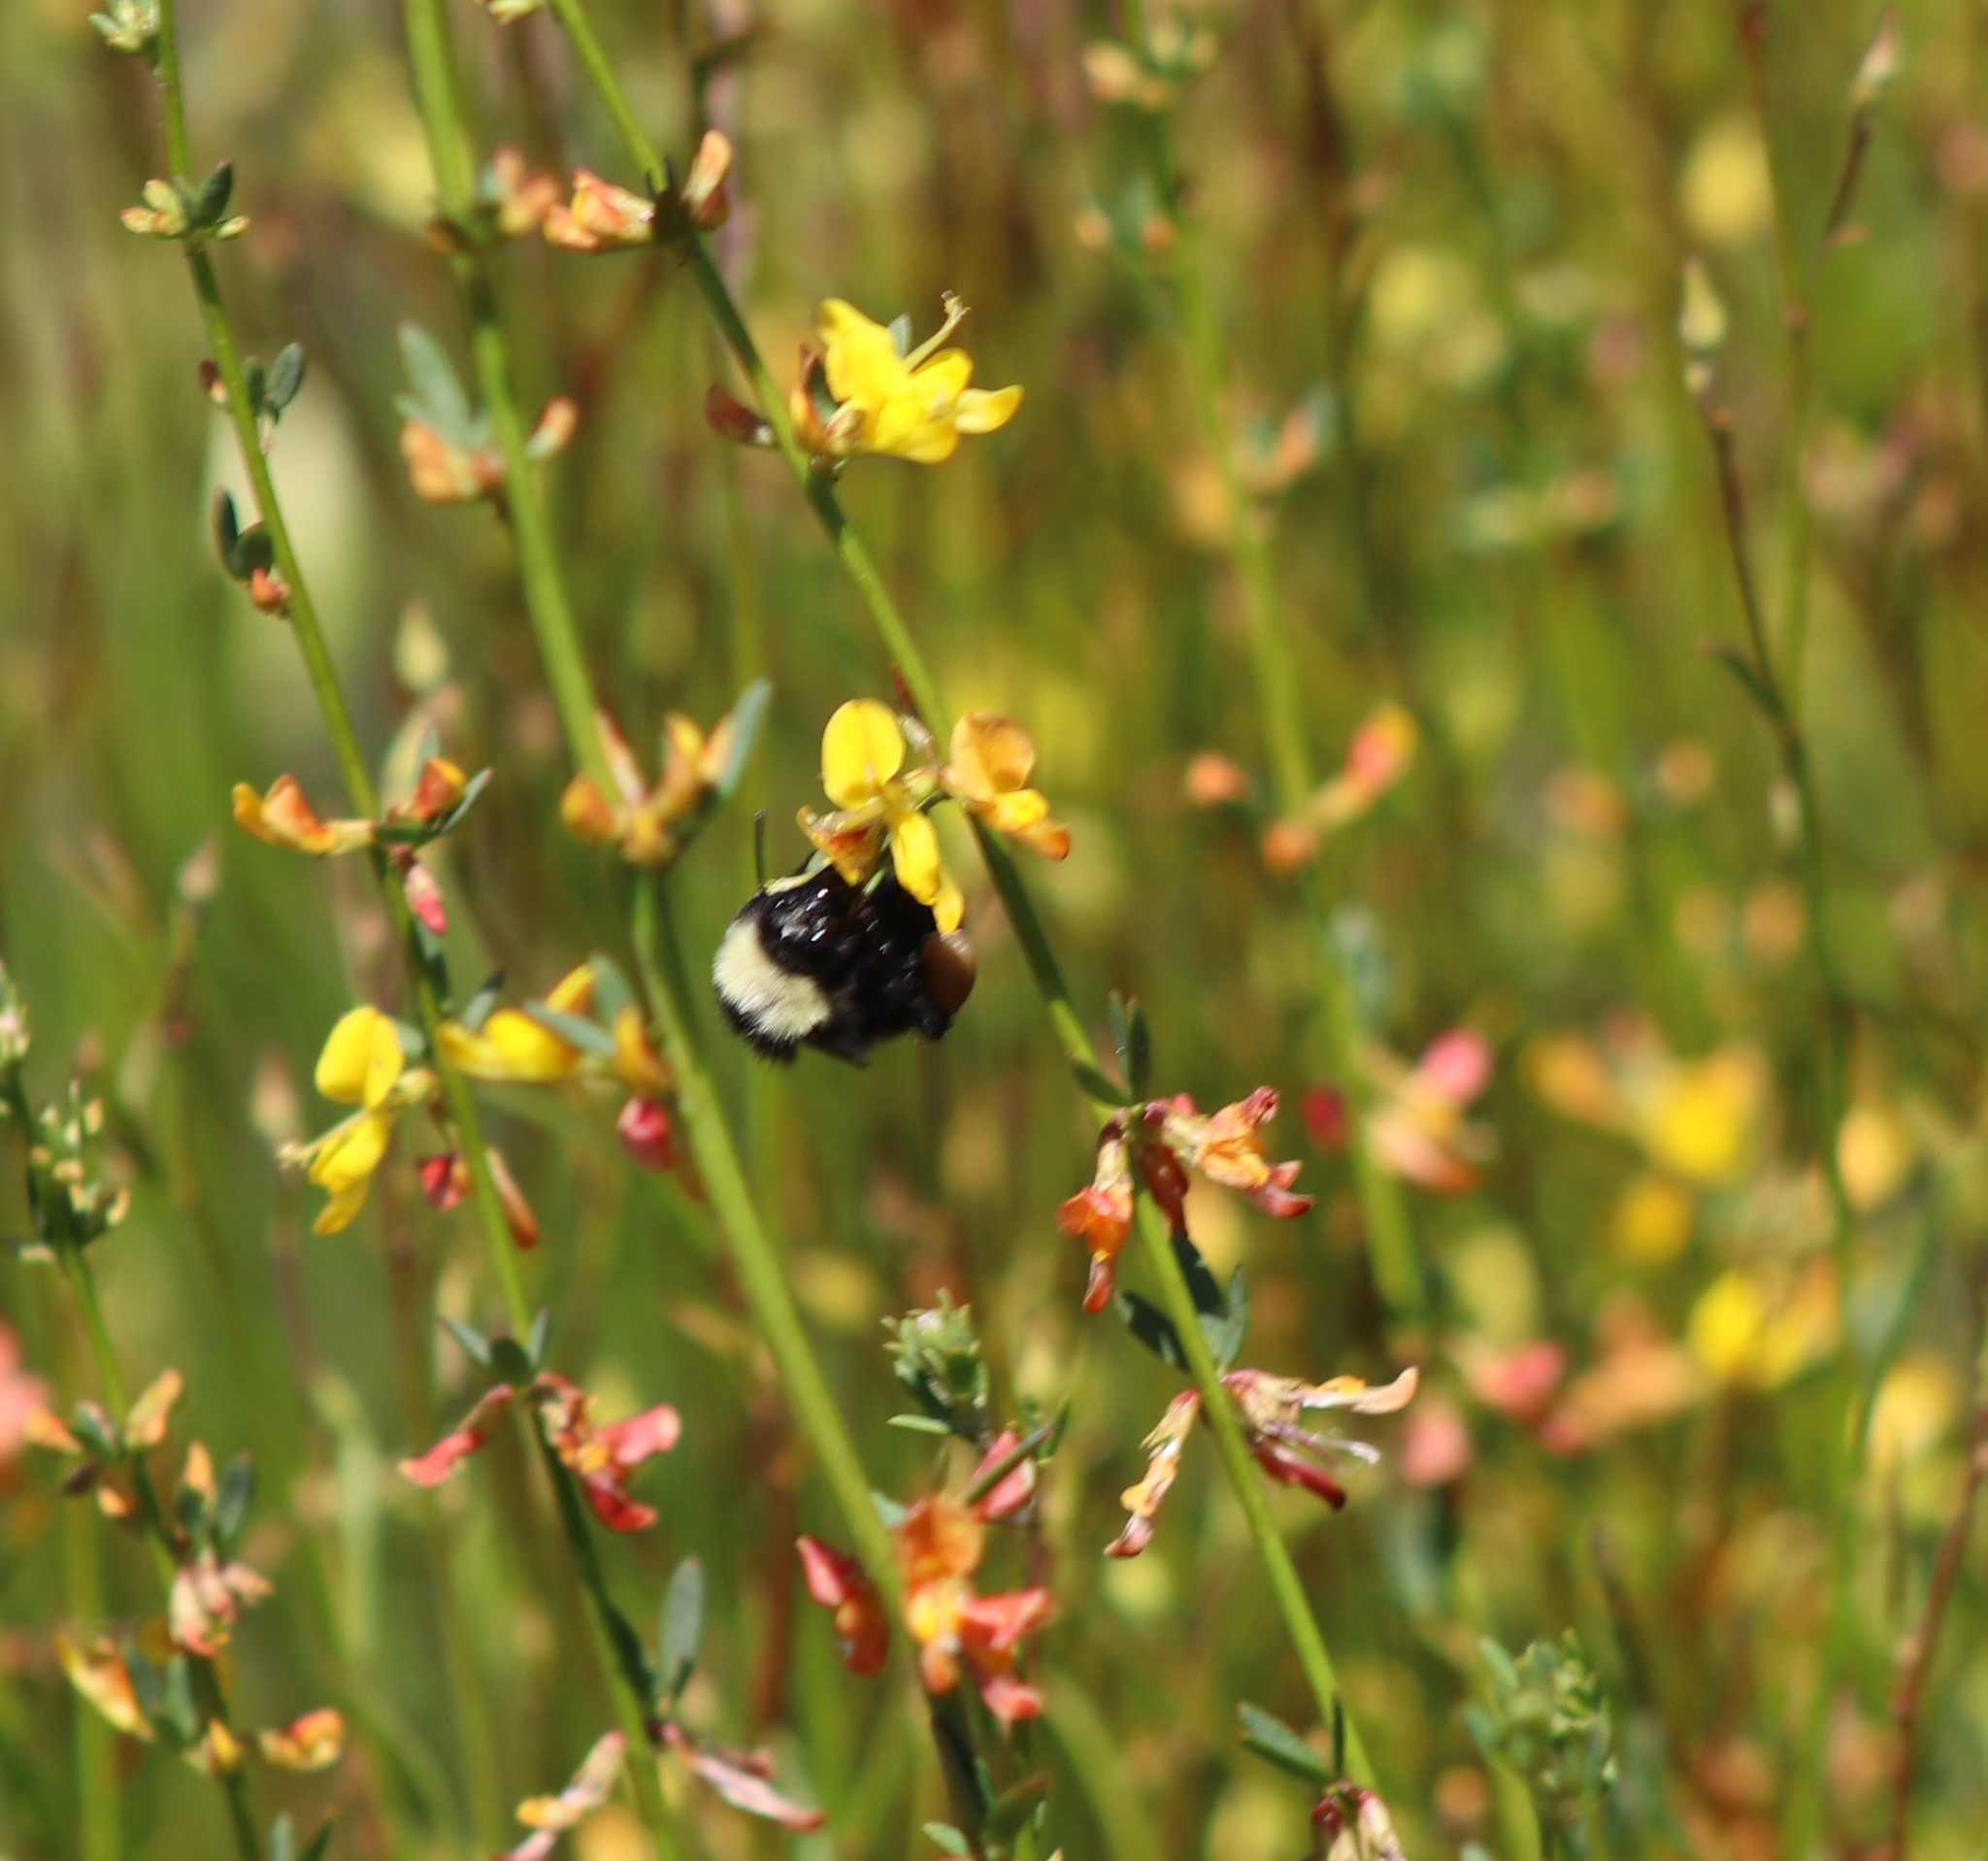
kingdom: Animalia
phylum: Arthropoda
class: Insecta
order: Hymenoptera
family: Apidae
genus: Bombus
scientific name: Bombus californicus
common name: California bumble bee
